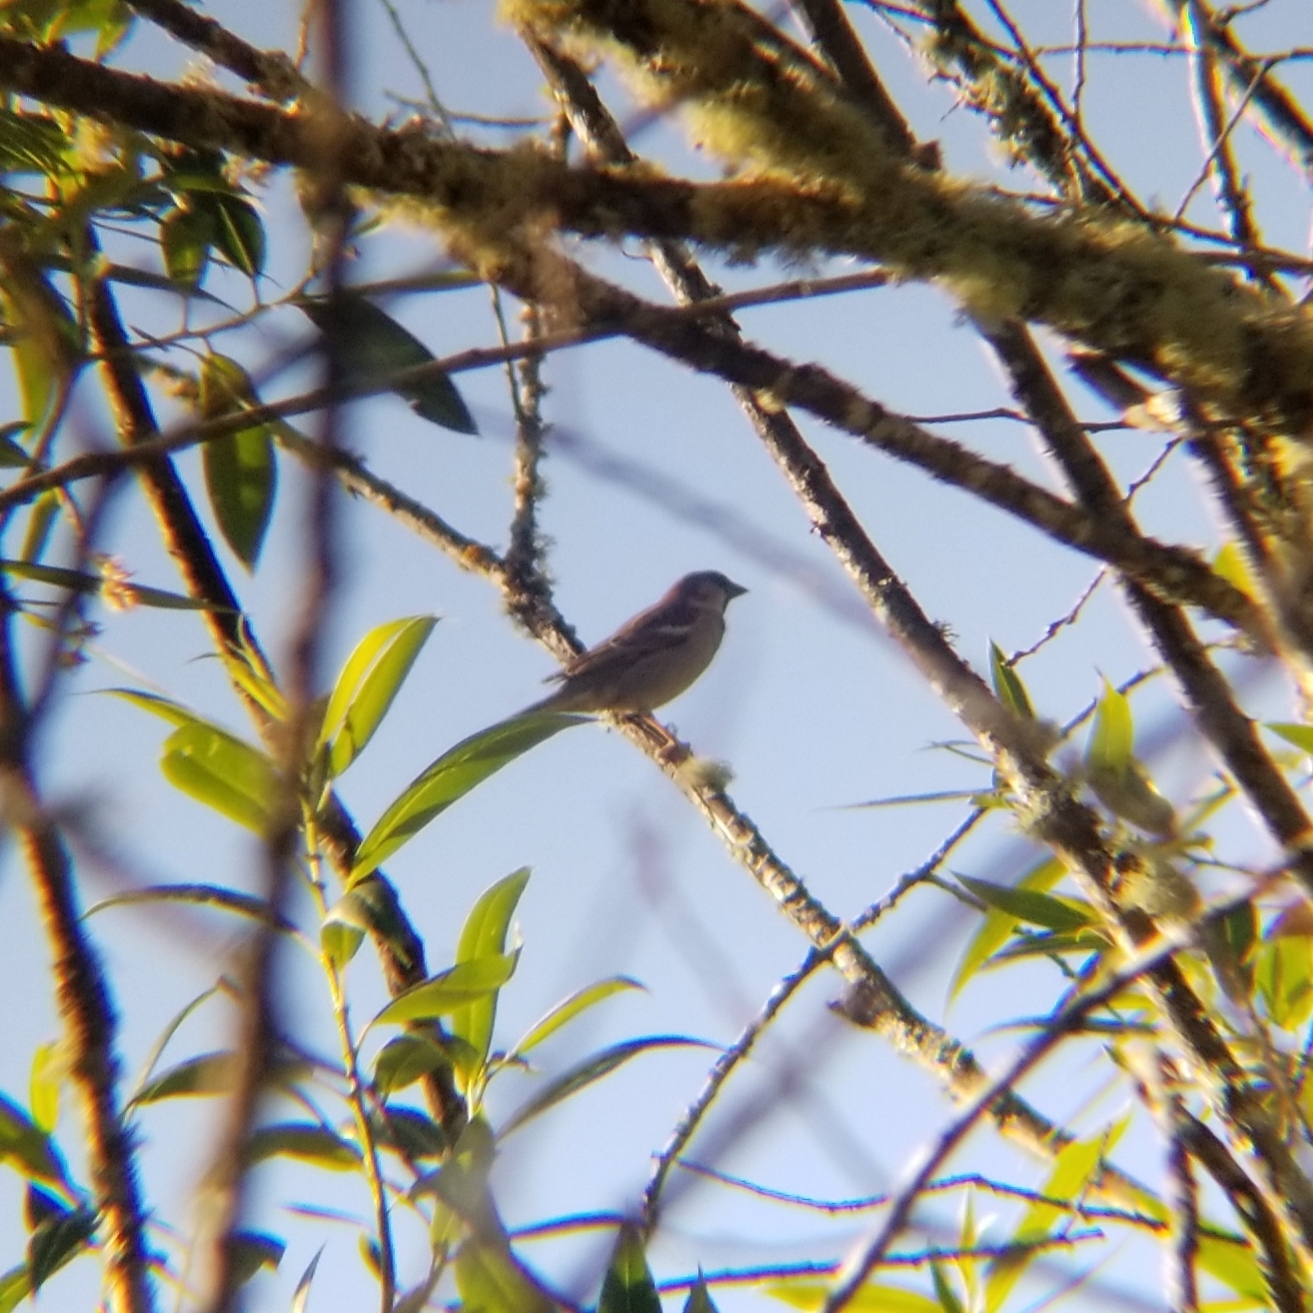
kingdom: Animalia
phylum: Chordata
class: Aves
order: Passeriformes
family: Passeridae
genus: Passer
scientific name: Passer domesticus
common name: House sparrow
